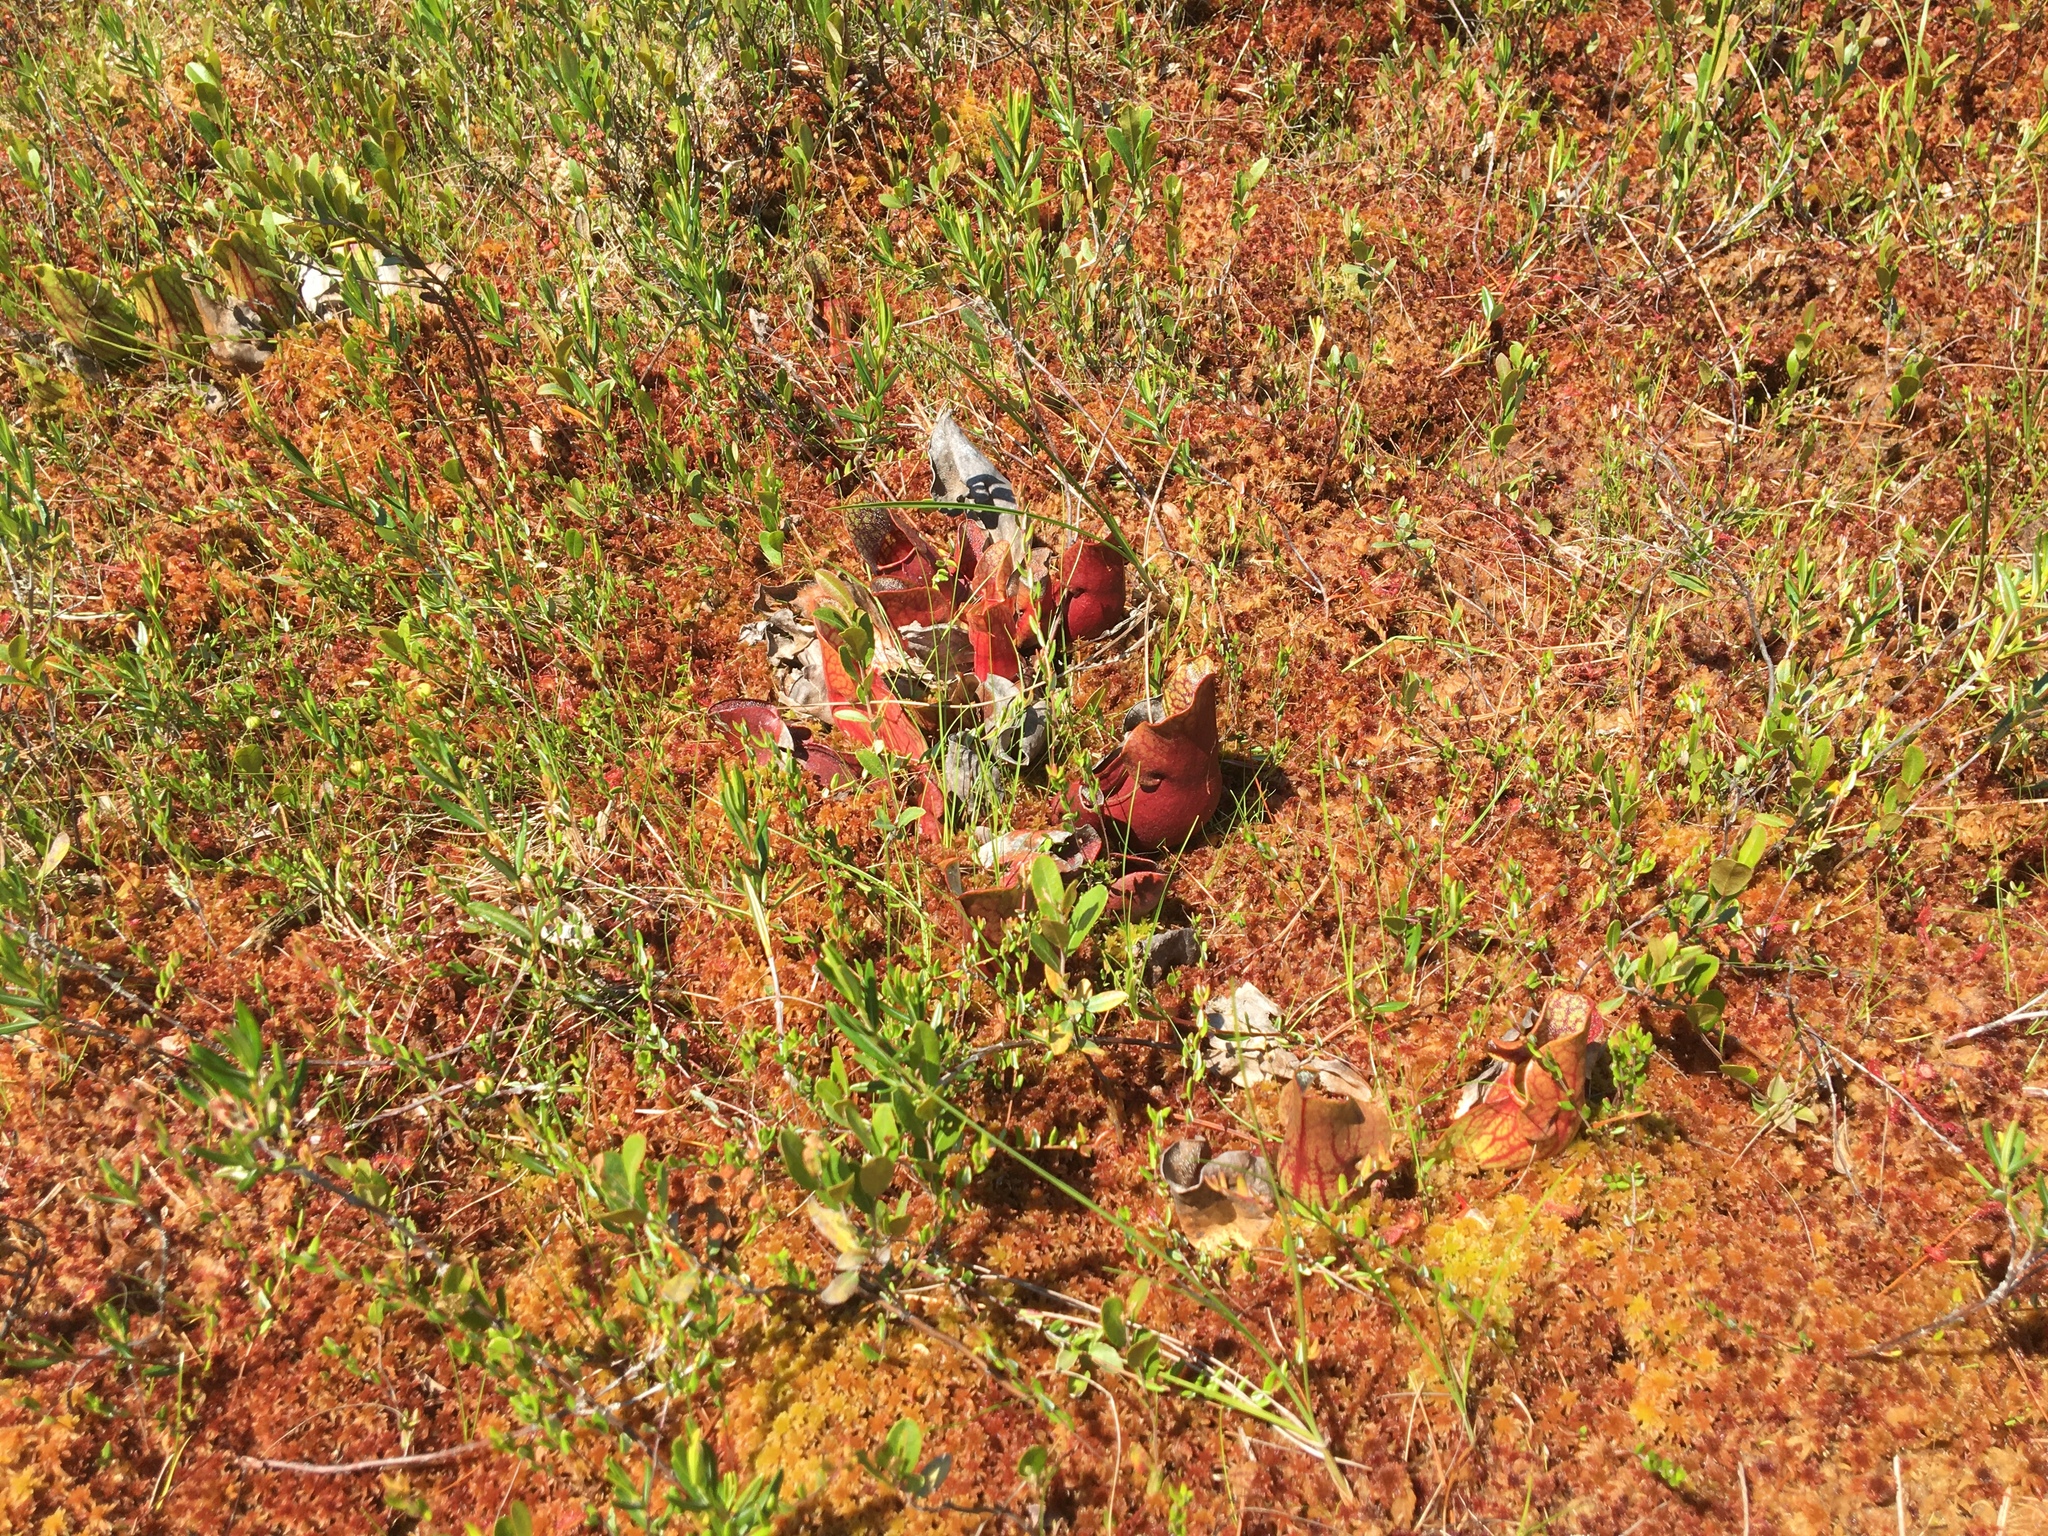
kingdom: Plantae
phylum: Tracheophyta
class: Magnoliopsida
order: Ericales
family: Sarraceniaceae
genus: Sarracenia
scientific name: Sarracenia purpurea
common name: Pitcherplant
